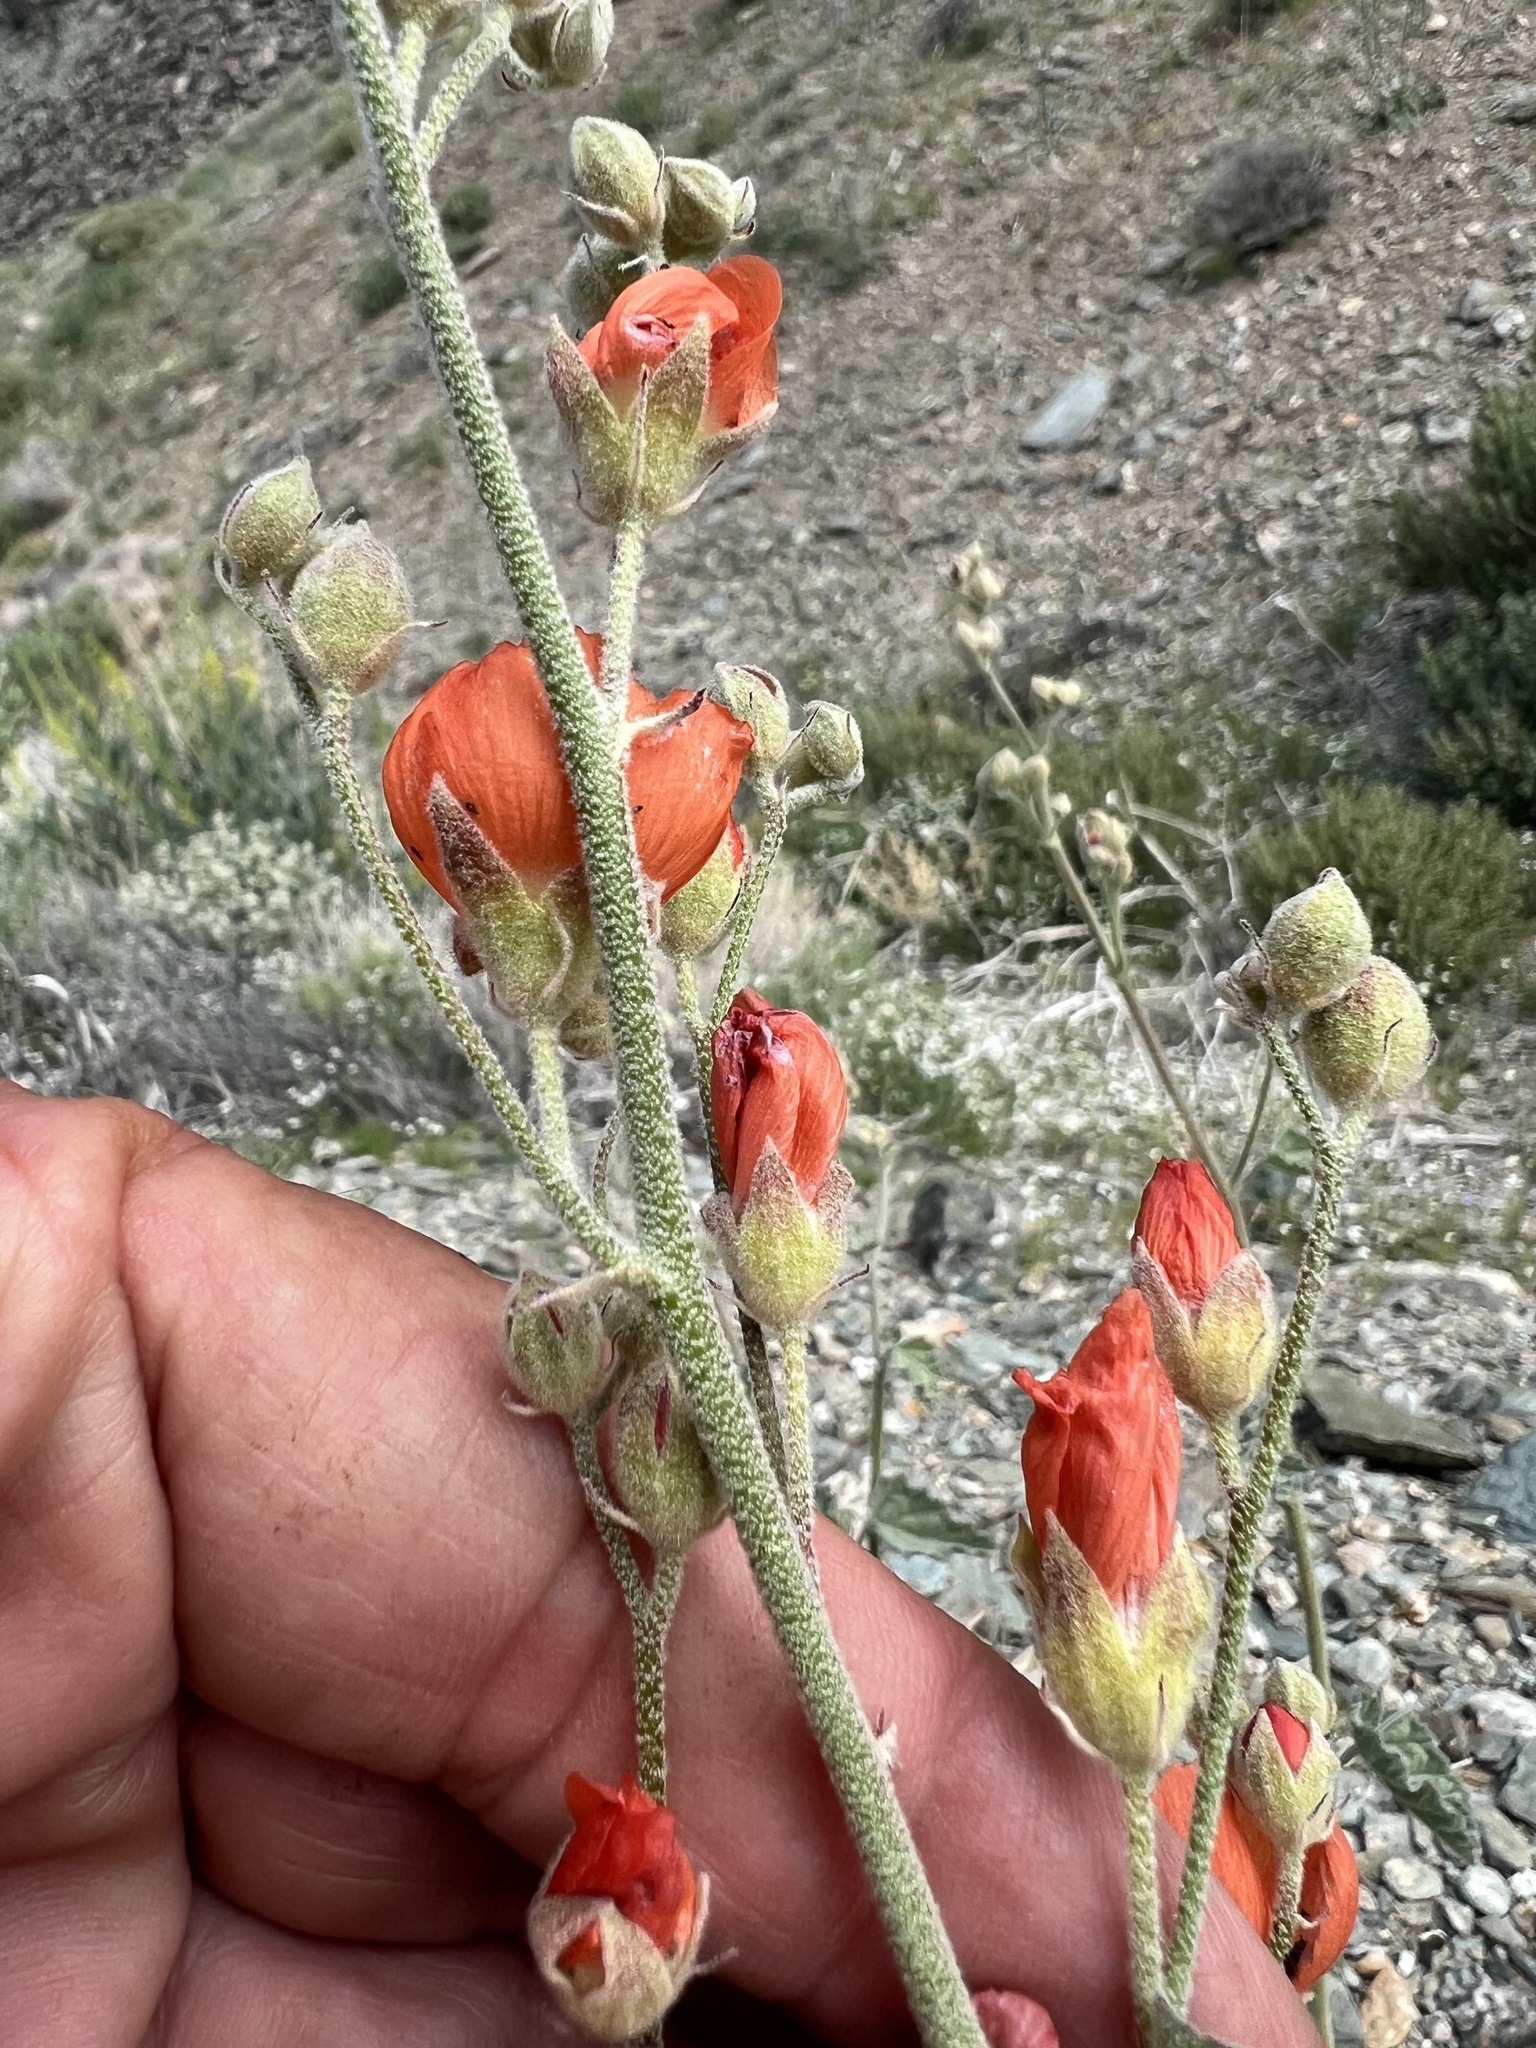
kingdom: Plantae
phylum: Tracheophyta
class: Magnoliopsida
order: Malvales
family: Malvaceae
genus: Sphaeralcea
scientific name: Sphaeralcea ambigua
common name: Apricot globe-mallow
